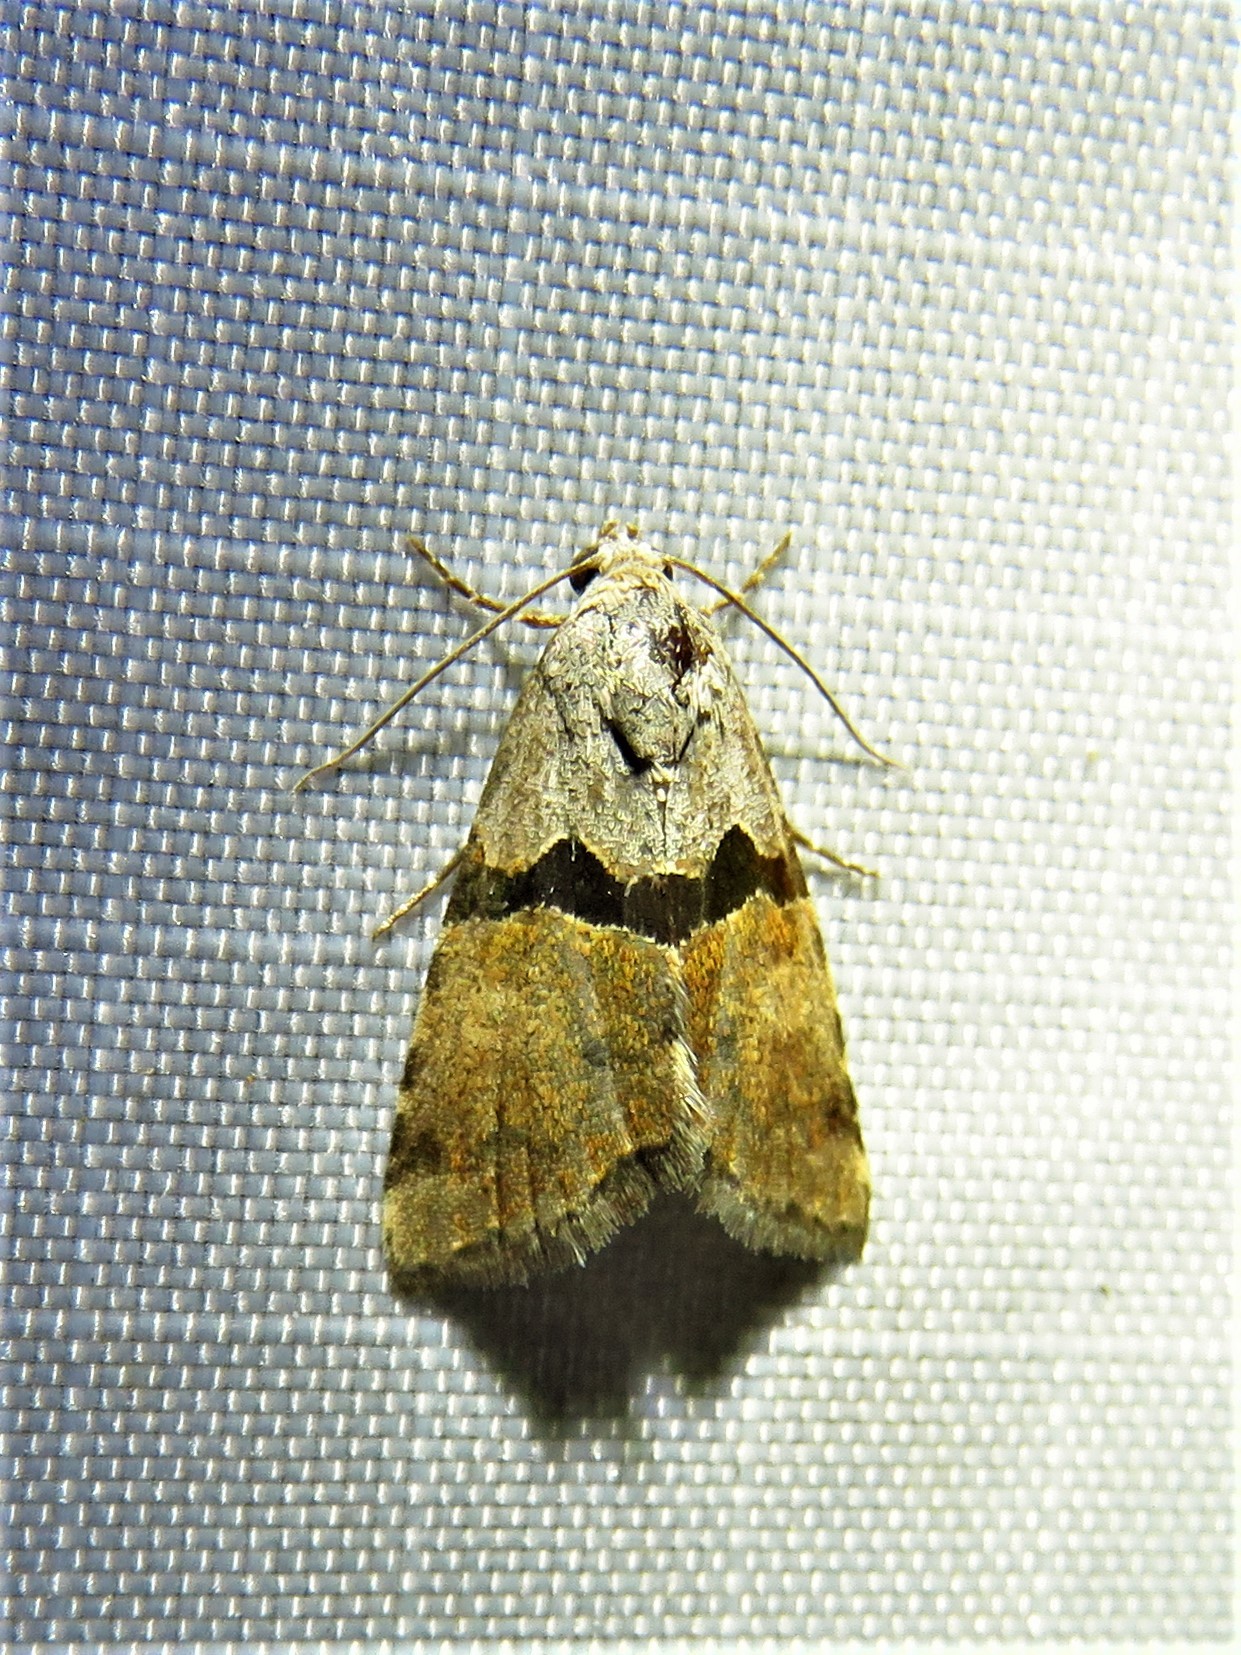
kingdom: Animalia
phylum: Arthropoda
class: Insecta
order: Lepidoptera
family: Noctuidae
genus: Cobubatha
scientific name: Cobubatha orthozona
